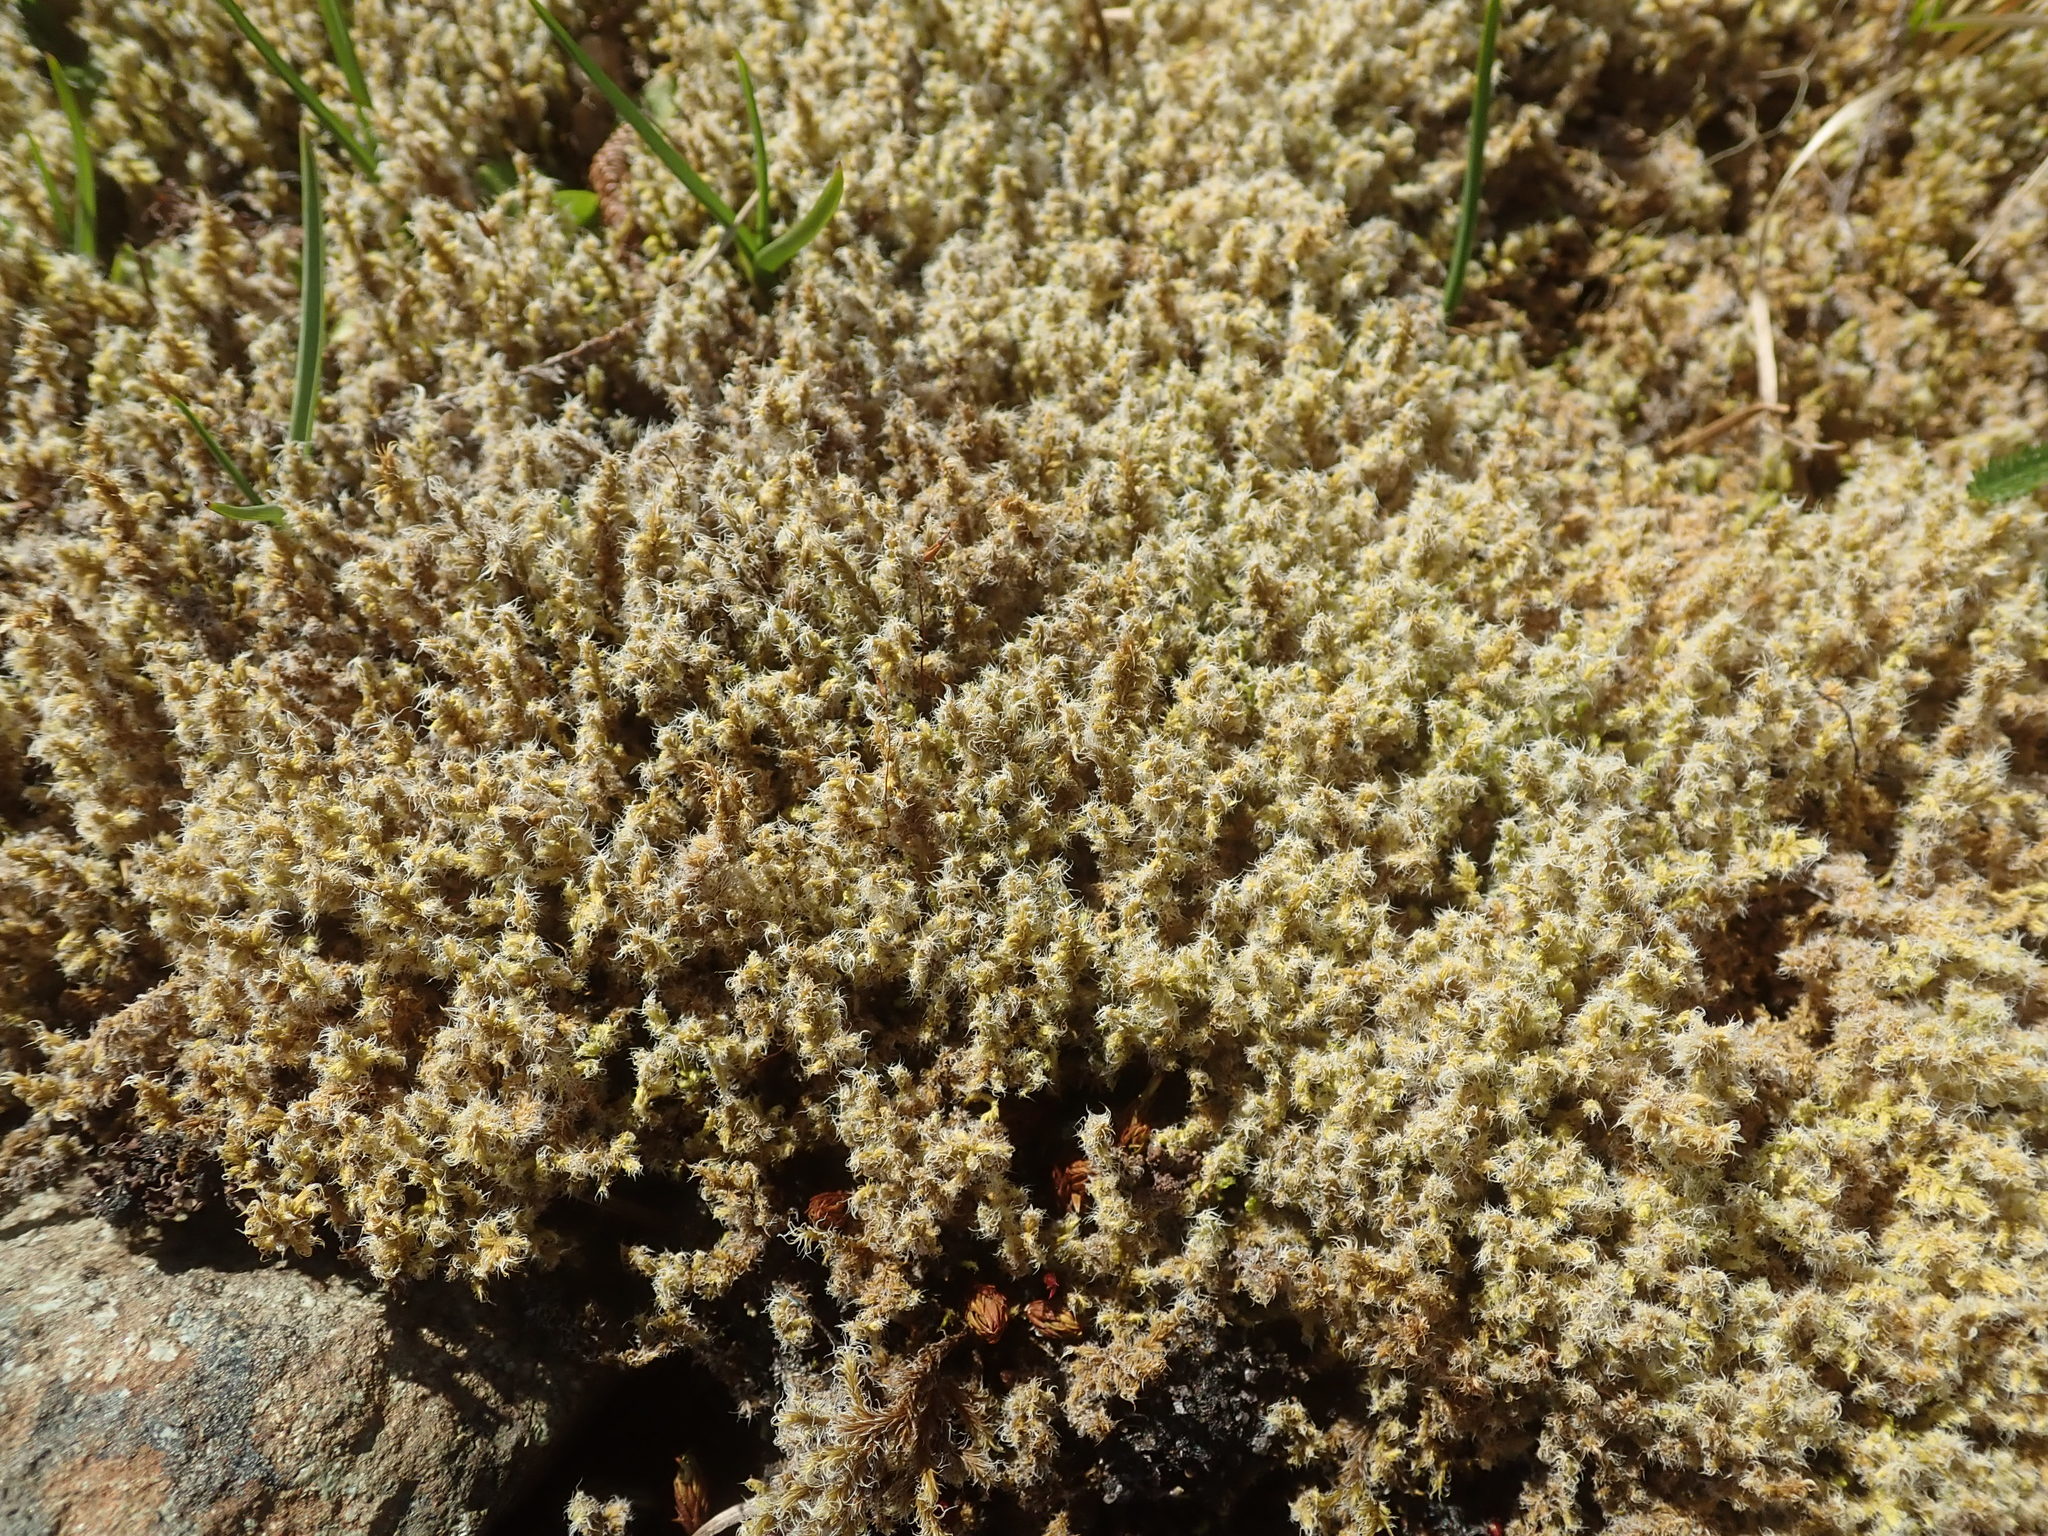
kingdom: Plantae
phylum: Bryophyta
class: Bryopsida
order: Grimmiales
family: Grimmiaceae
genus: Niphotrichum
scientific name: Niphotrichum elongatum
